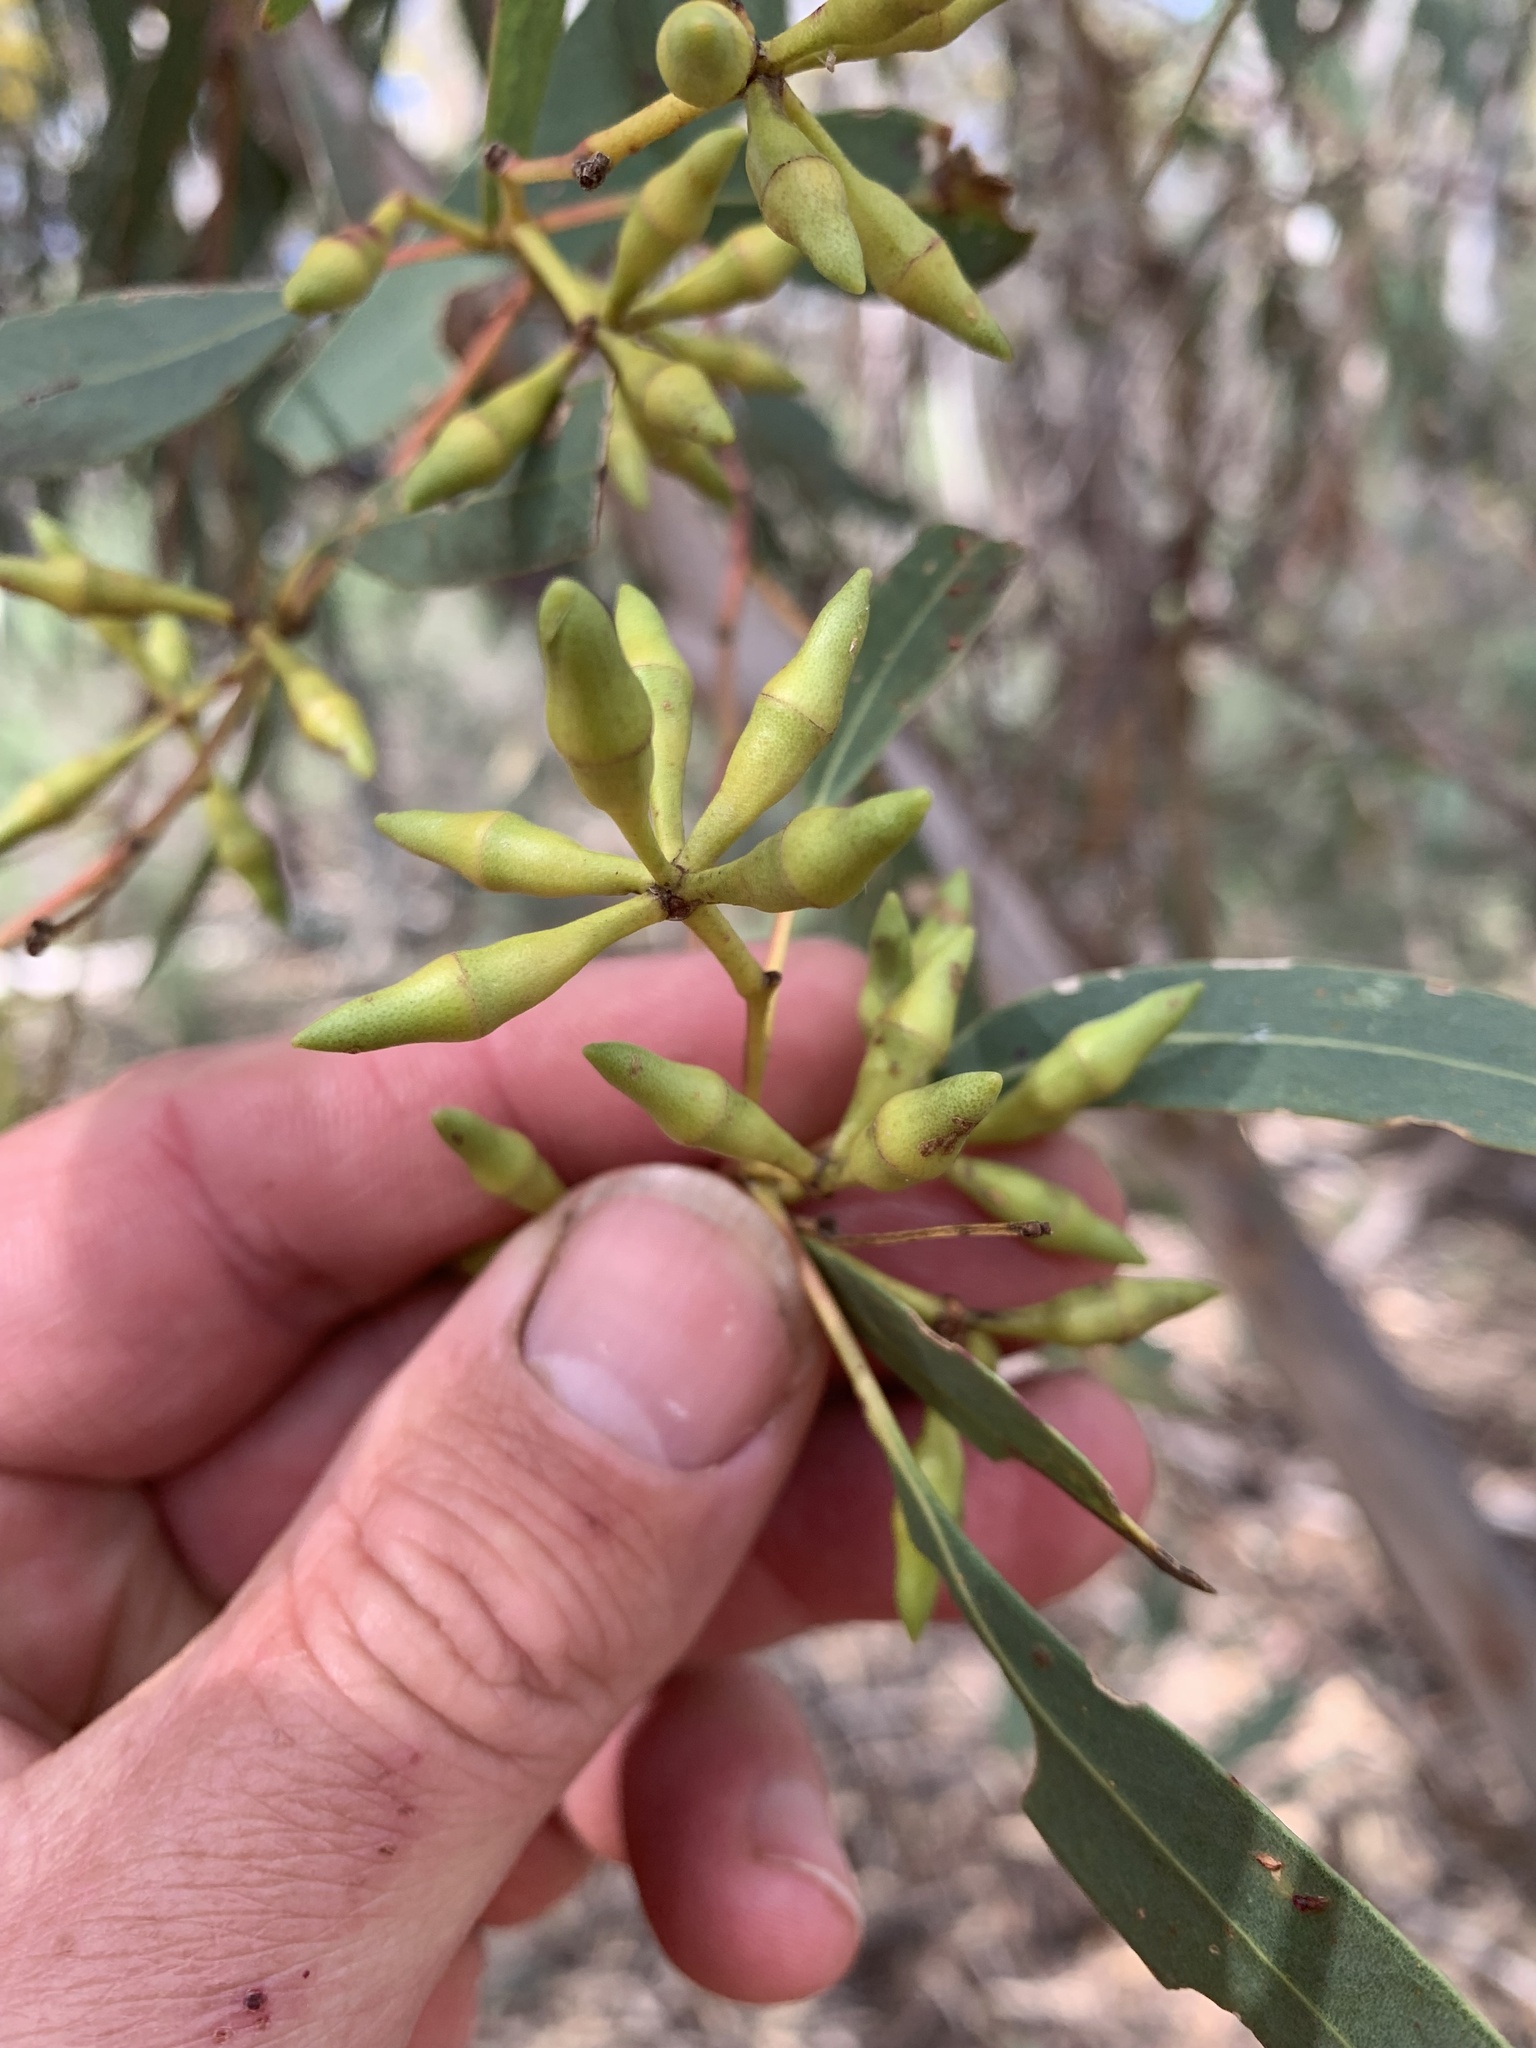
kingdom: Plantae
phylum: Tracheophyta
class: Magnoliopsida
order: Myrtales
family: Myrtaceae
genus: Eucalyptus
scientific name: Eucalyptus dwyeri
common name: Dwyer's red gum
